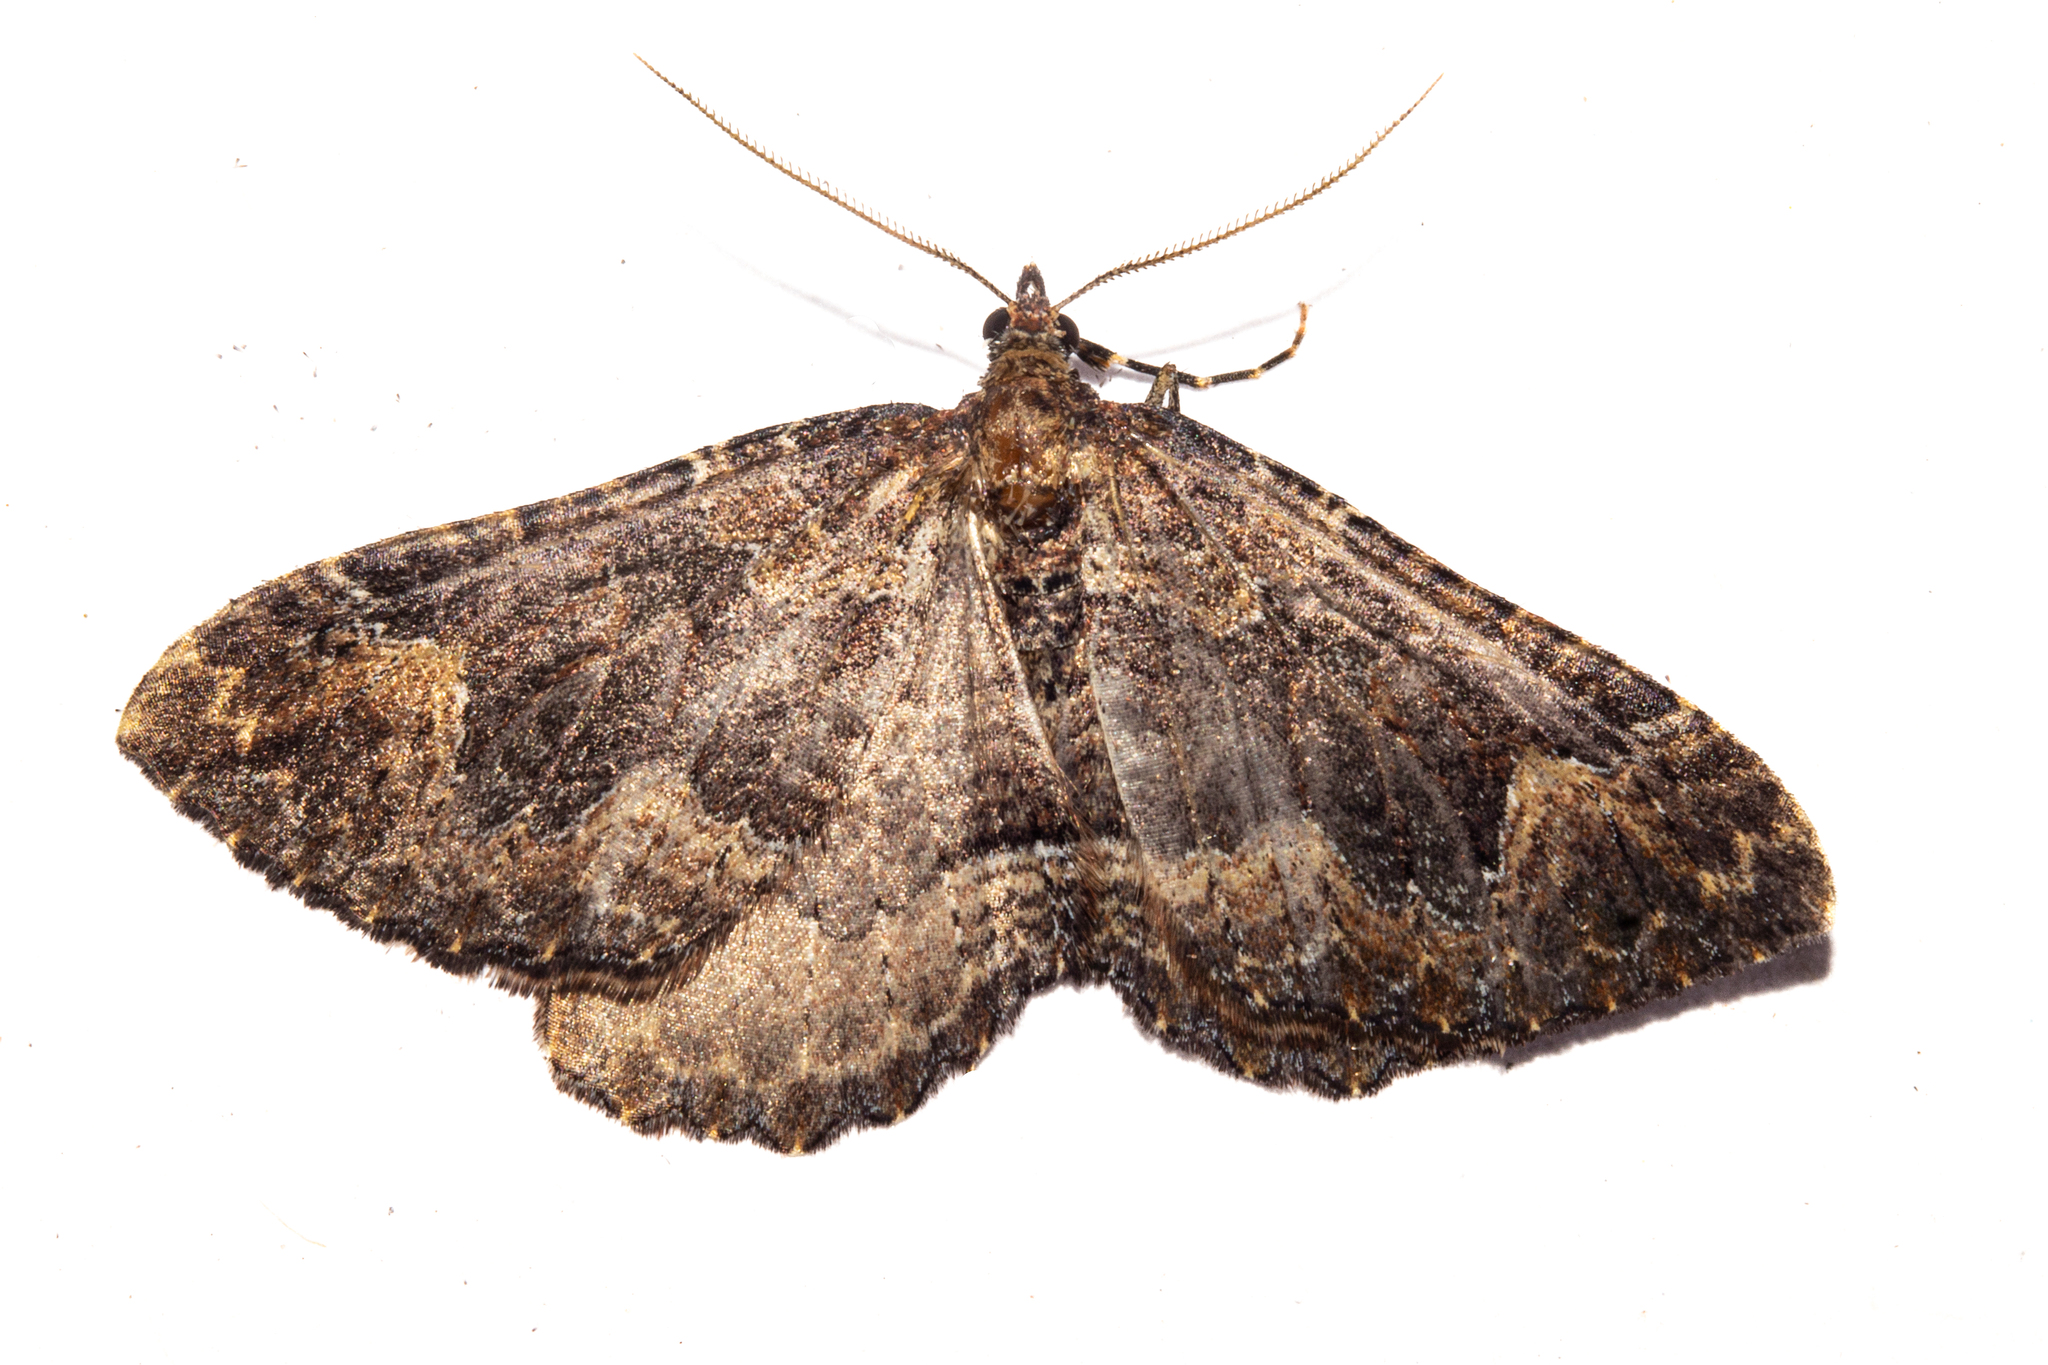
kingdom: Animalia
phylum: Arthropoda
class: Insecta
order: Lepidoptera
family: Geometridae
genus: Austrocidaria
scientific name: Austrocidaria cedrinodes
